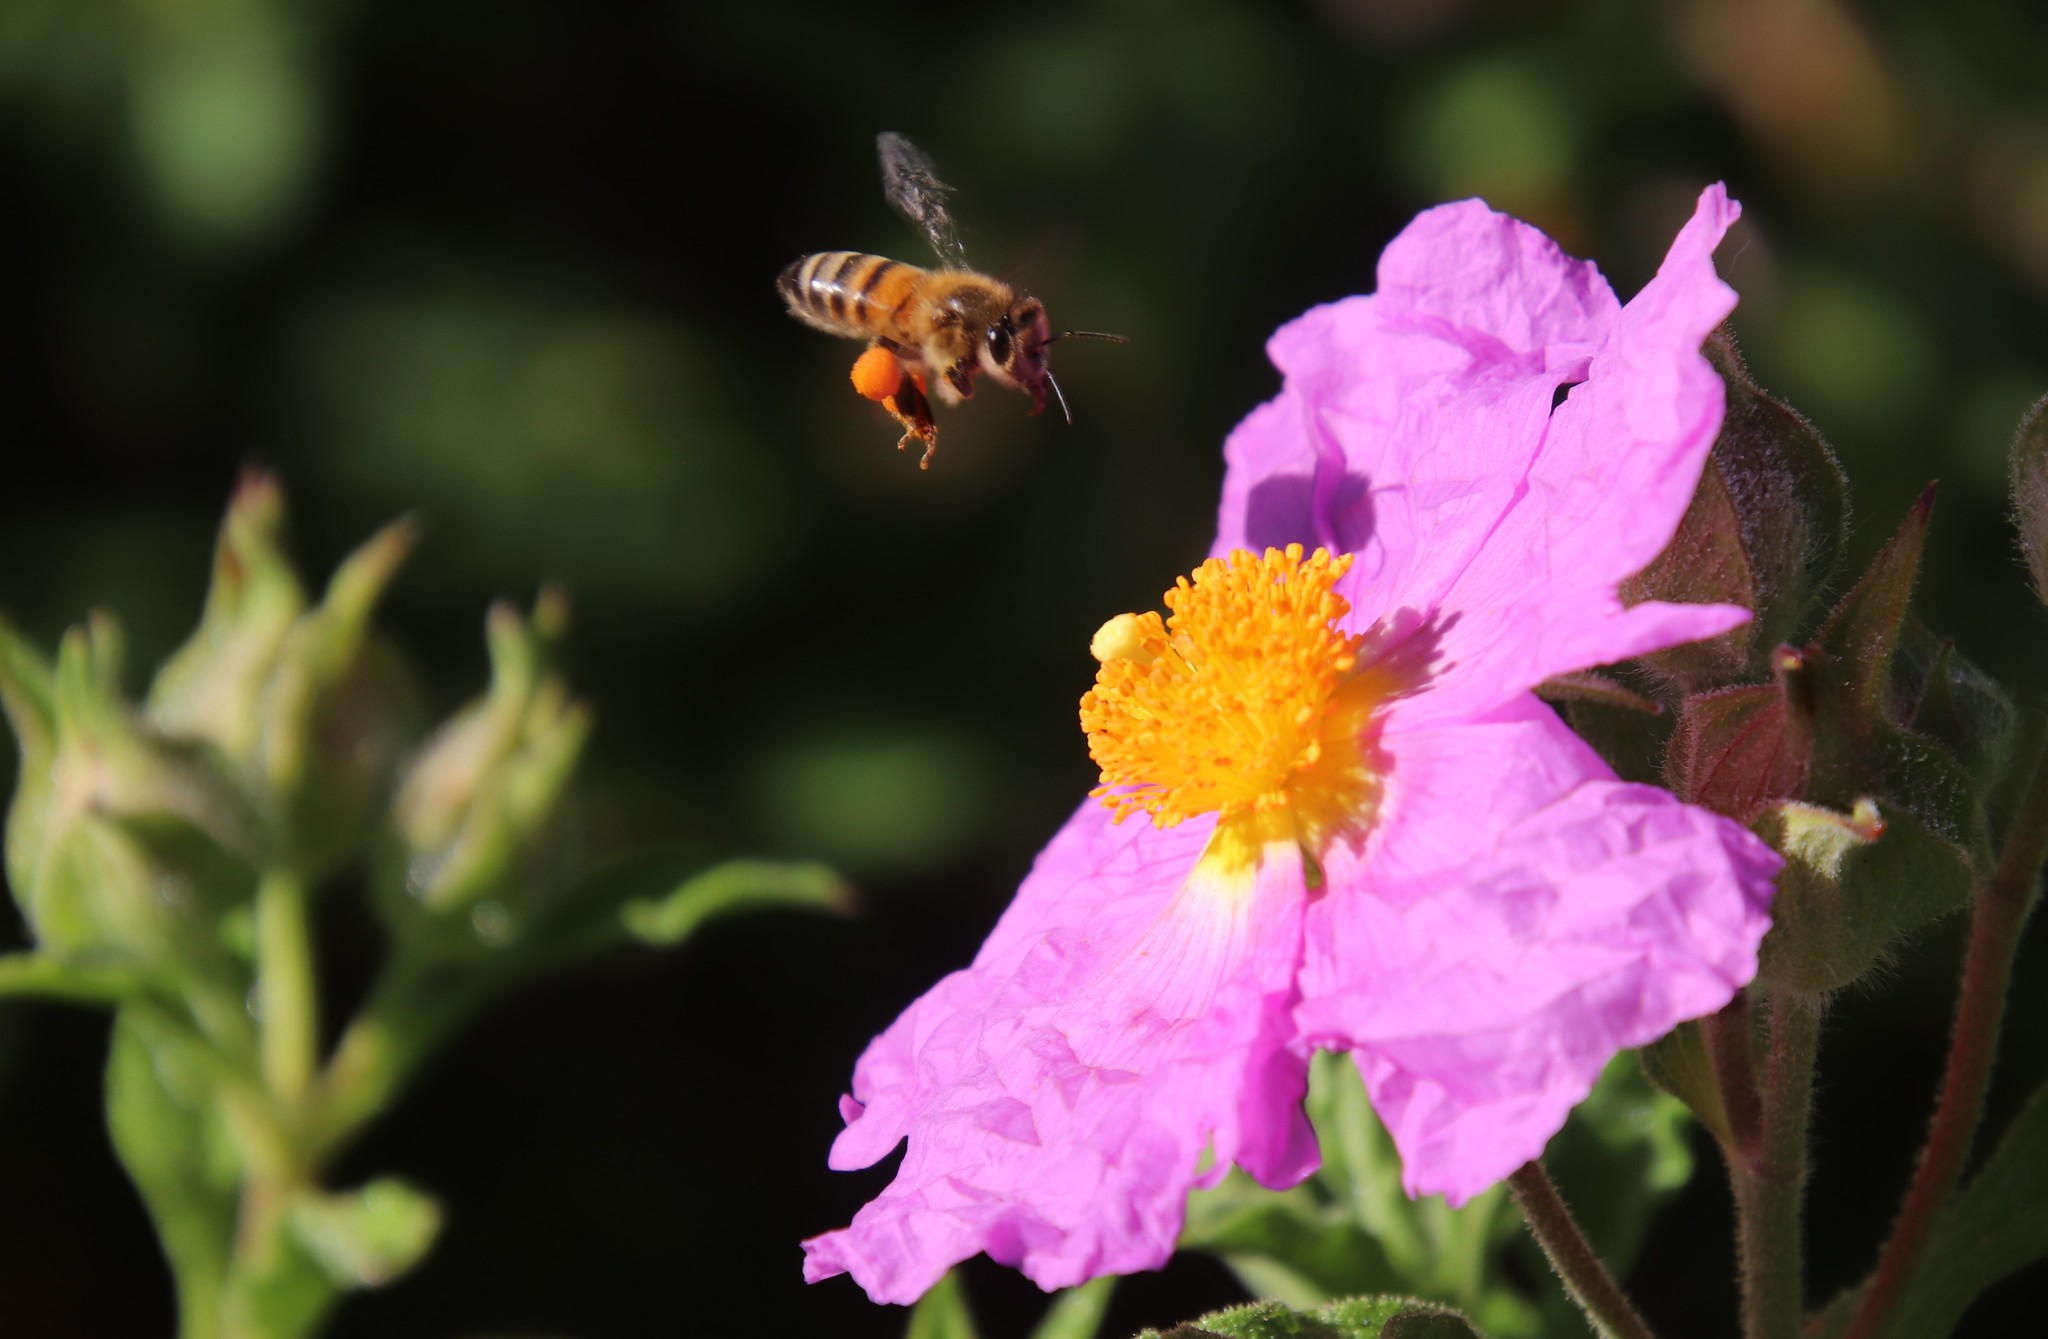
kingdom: Plantae
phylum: Tracheophyta
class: Magnoliopsida
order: Malvales
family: Cistaceae
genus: Cistus
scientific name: Cistus creticus
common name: Cretan rockrose
